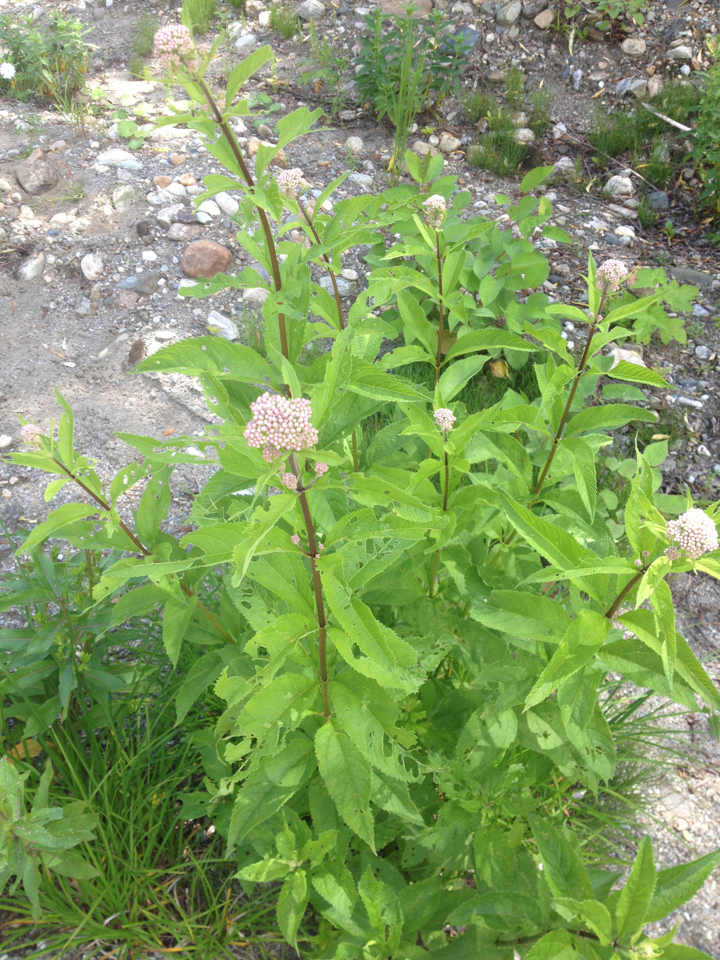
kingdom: Plantae
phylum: Tracheophyta
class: Magnoliopsida
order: Asterales
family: Asteraceae
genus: Eutrochium
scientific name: Eutrochium
